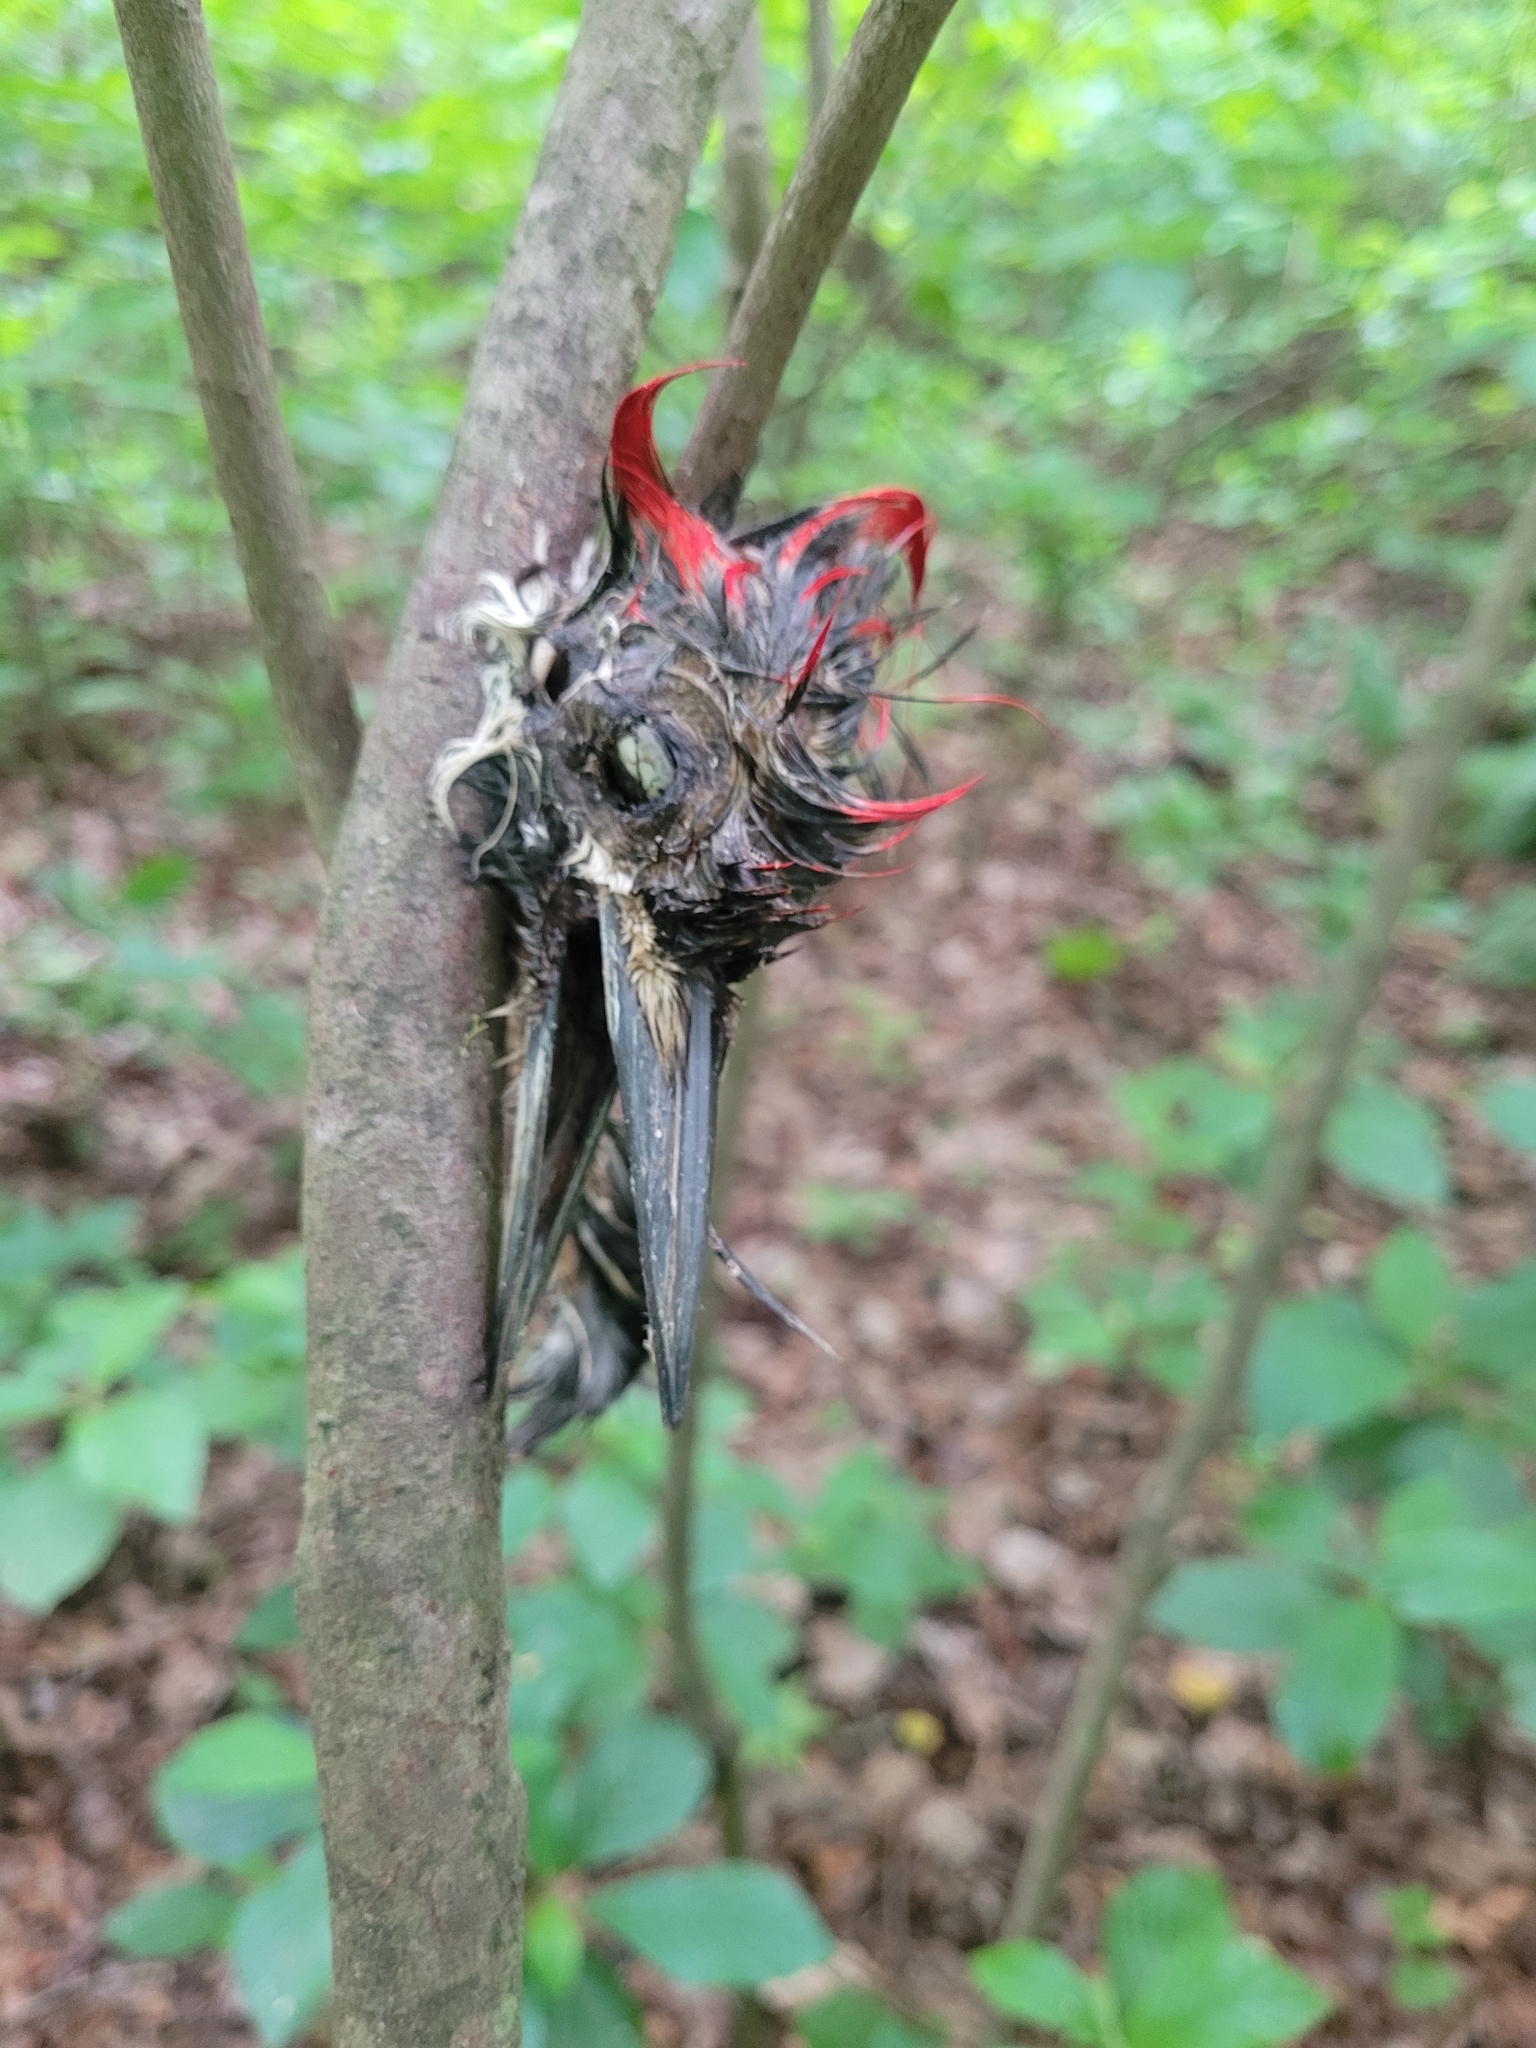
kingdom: Animalia
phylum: Chordata
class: Aves
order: Piciformes
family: Picidae
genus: Dryocopus
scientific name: Dryocopus pileatus
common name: Pileated woodpecker
